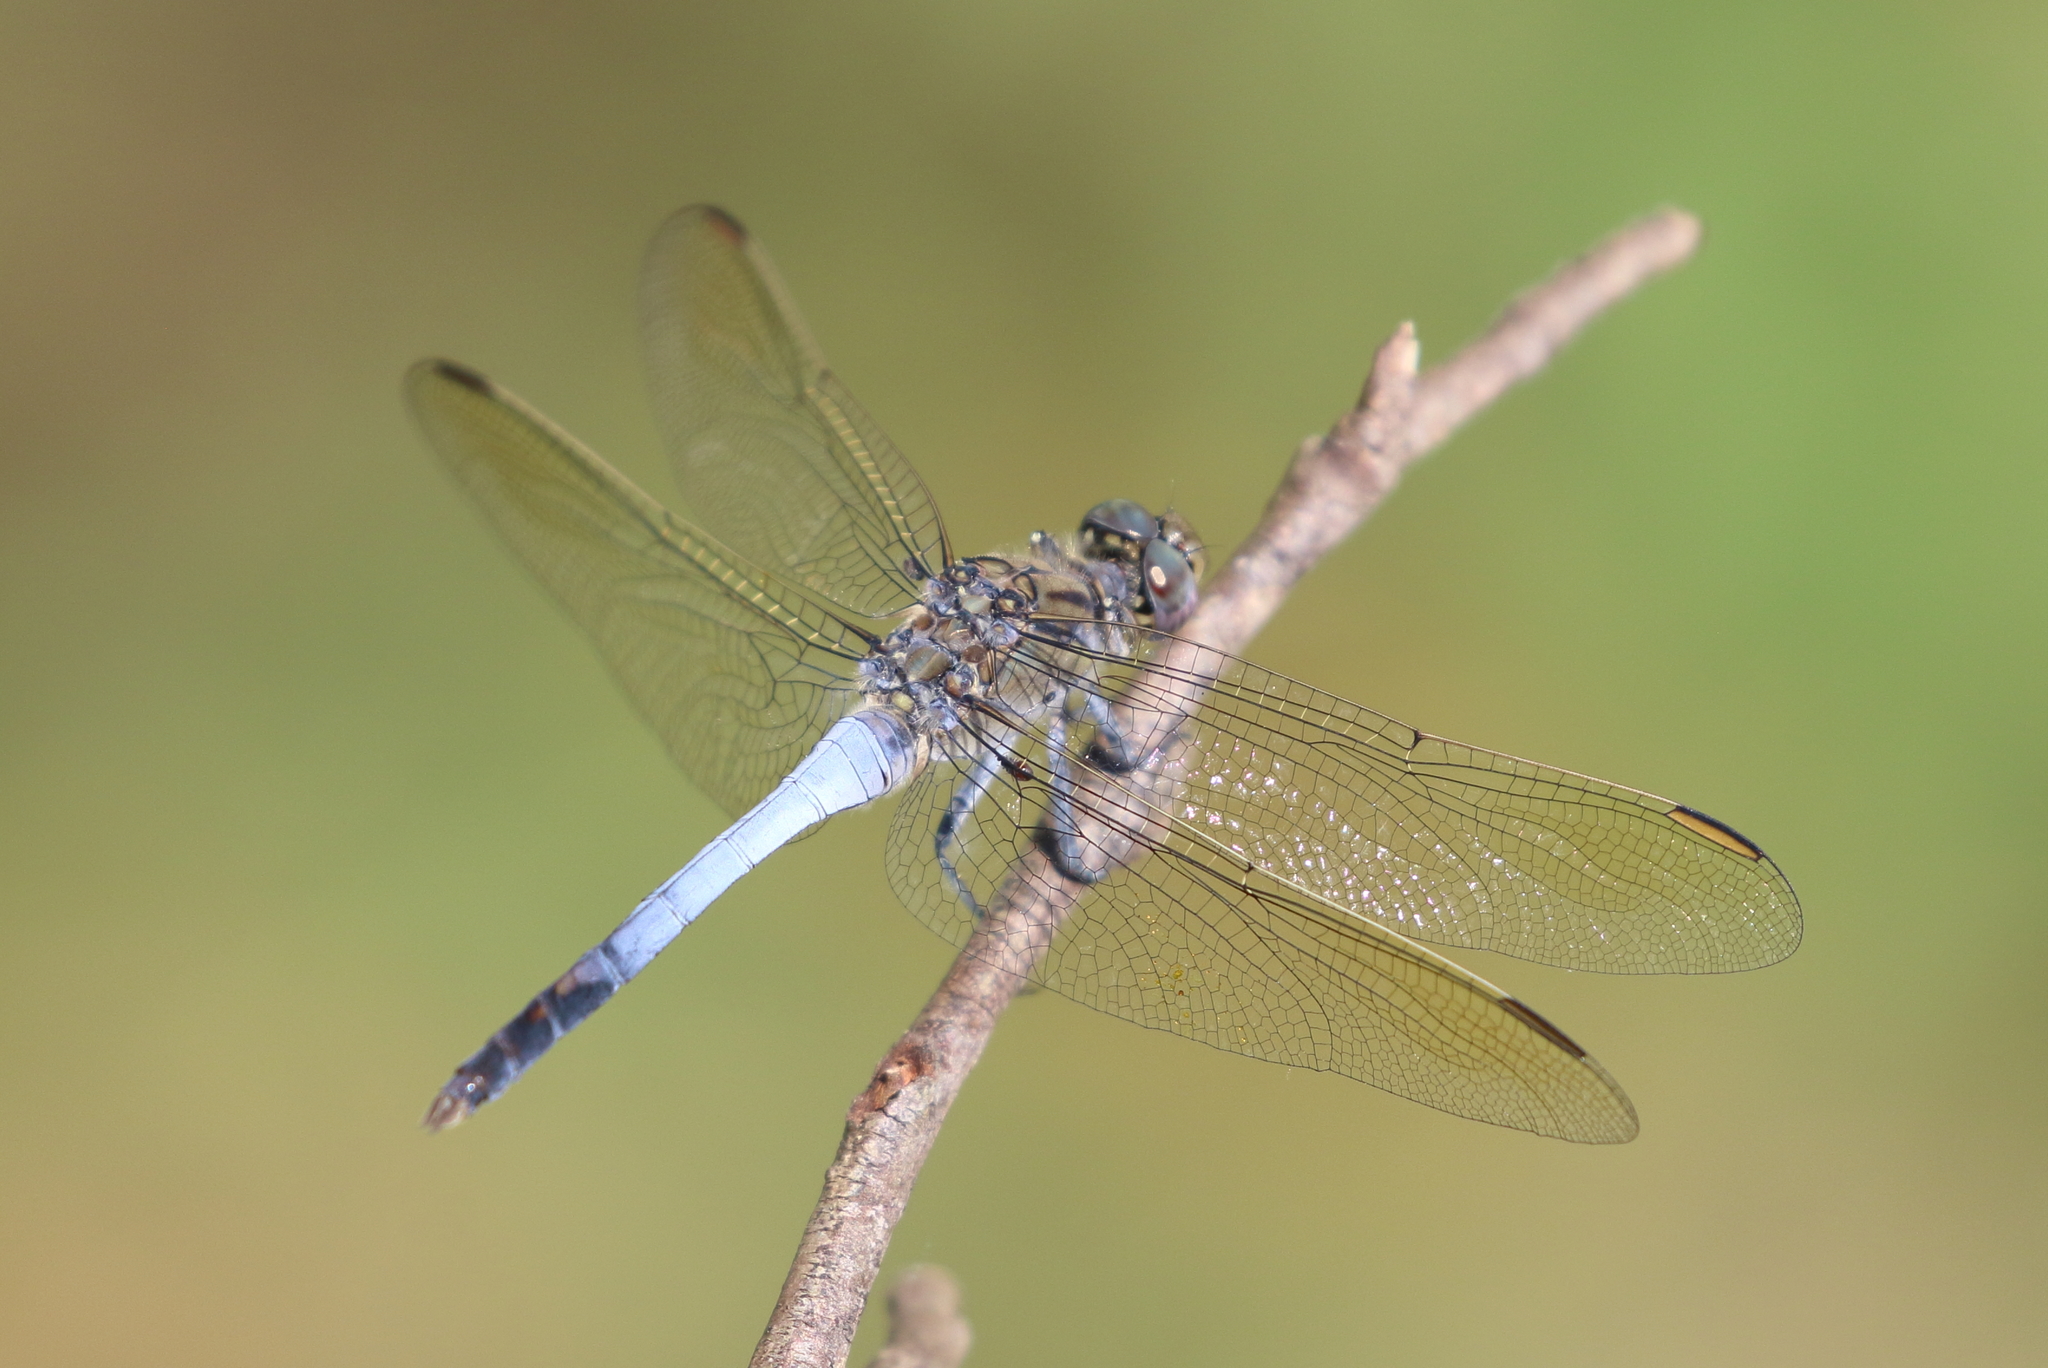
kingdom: Animalia
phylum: Arthropoda
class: Insecta
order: Odonata
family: Libellulidae
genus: Orthetrum
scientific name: Orthetrum caledonicum
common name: Blue skimmer
